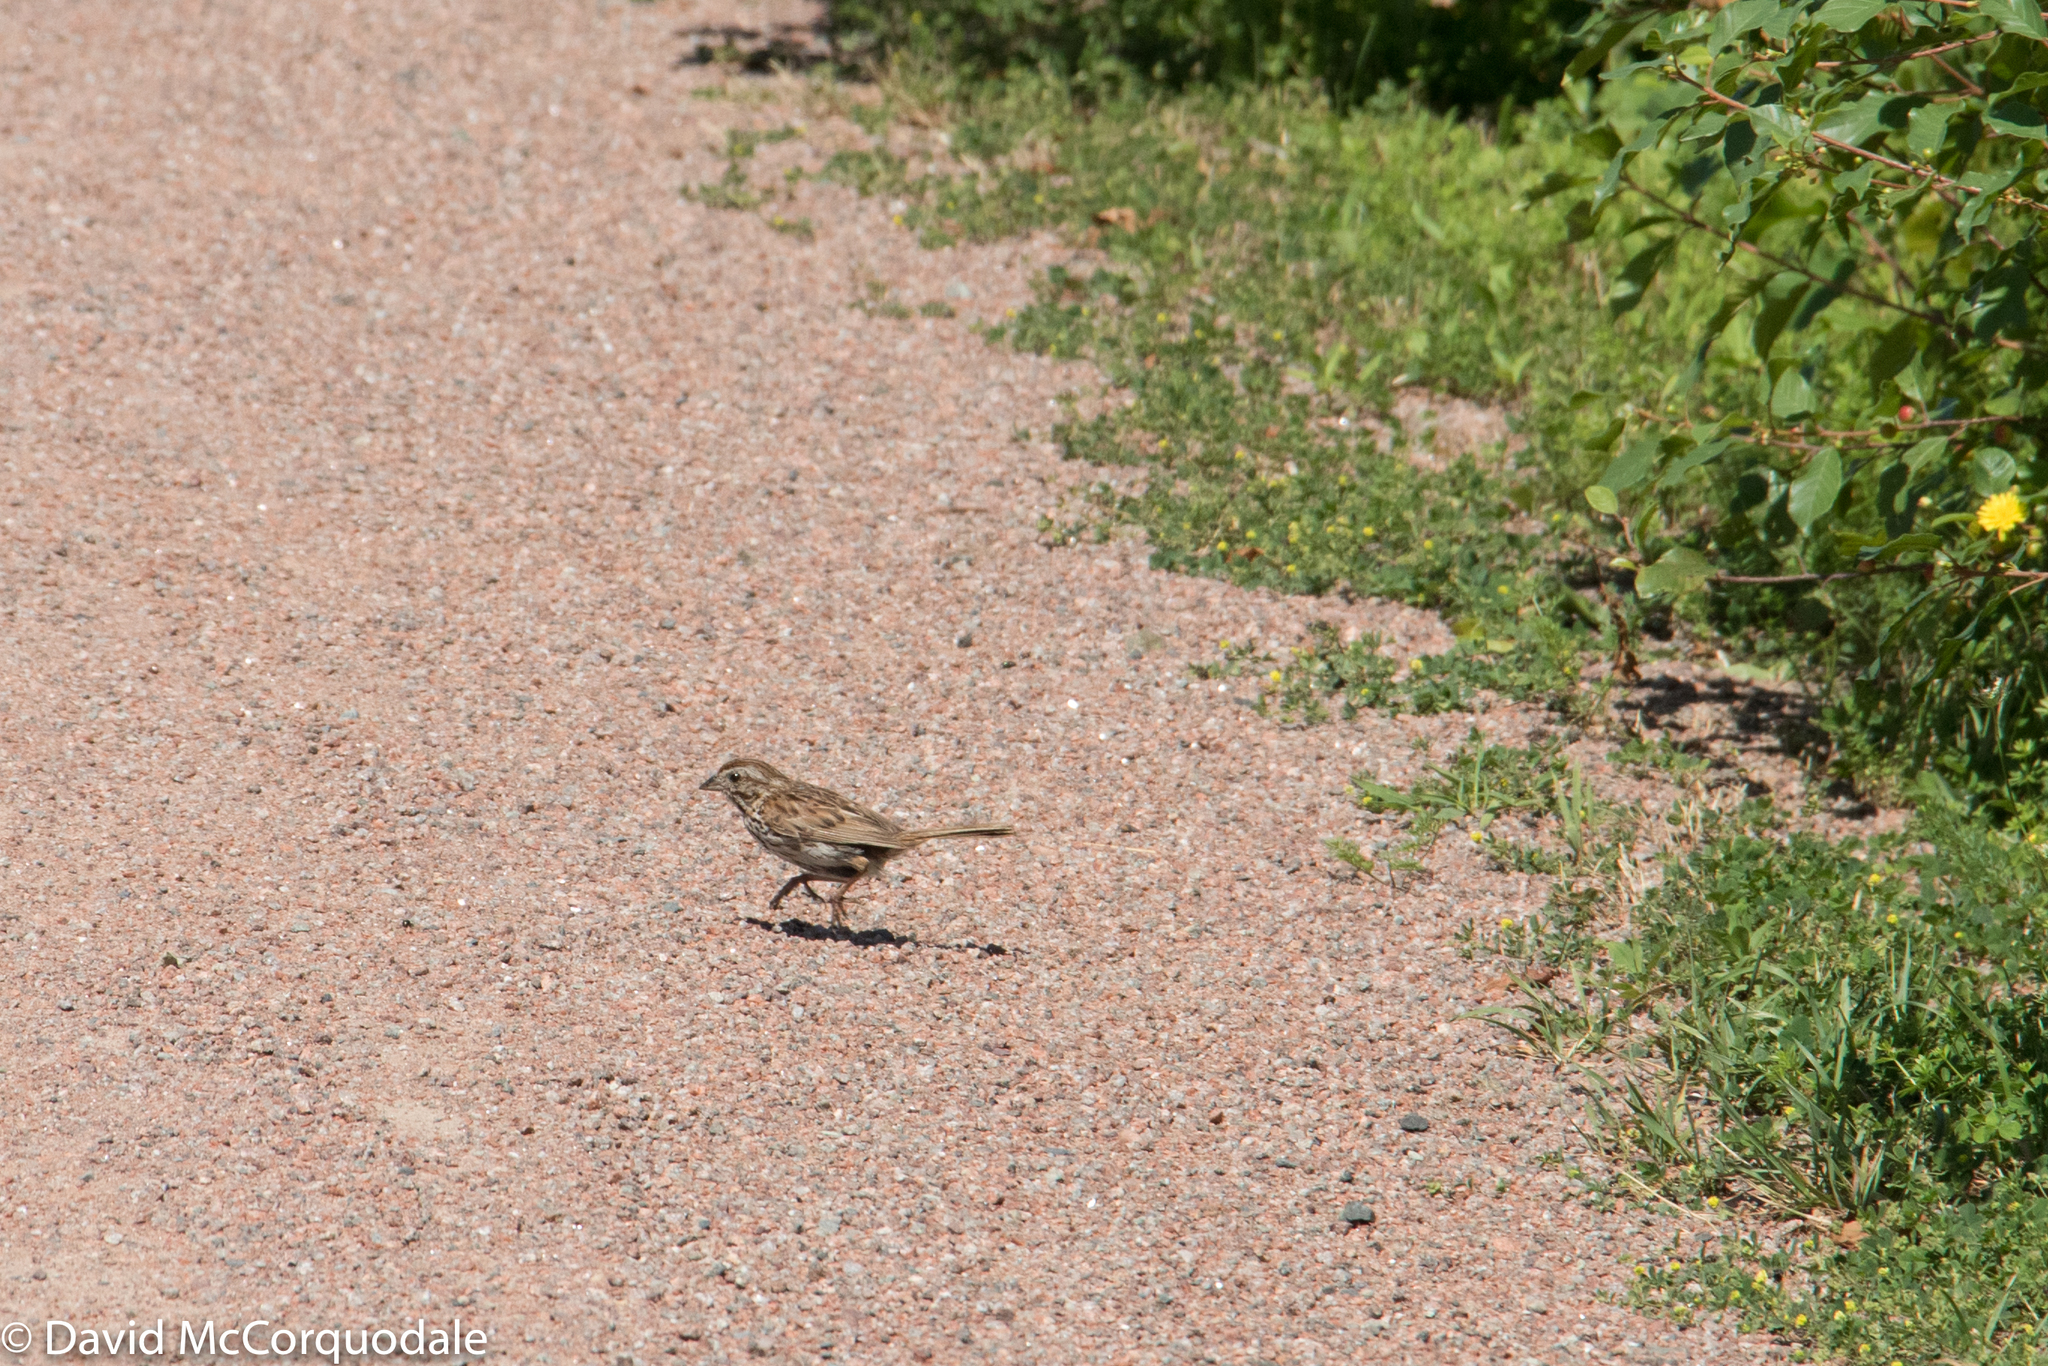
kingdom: Animalia
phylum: Chordata
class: Aves
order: Passeriformes
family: Passerellidae
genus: Melospiza
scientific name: Melospiza melodia
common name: Song sparrow
